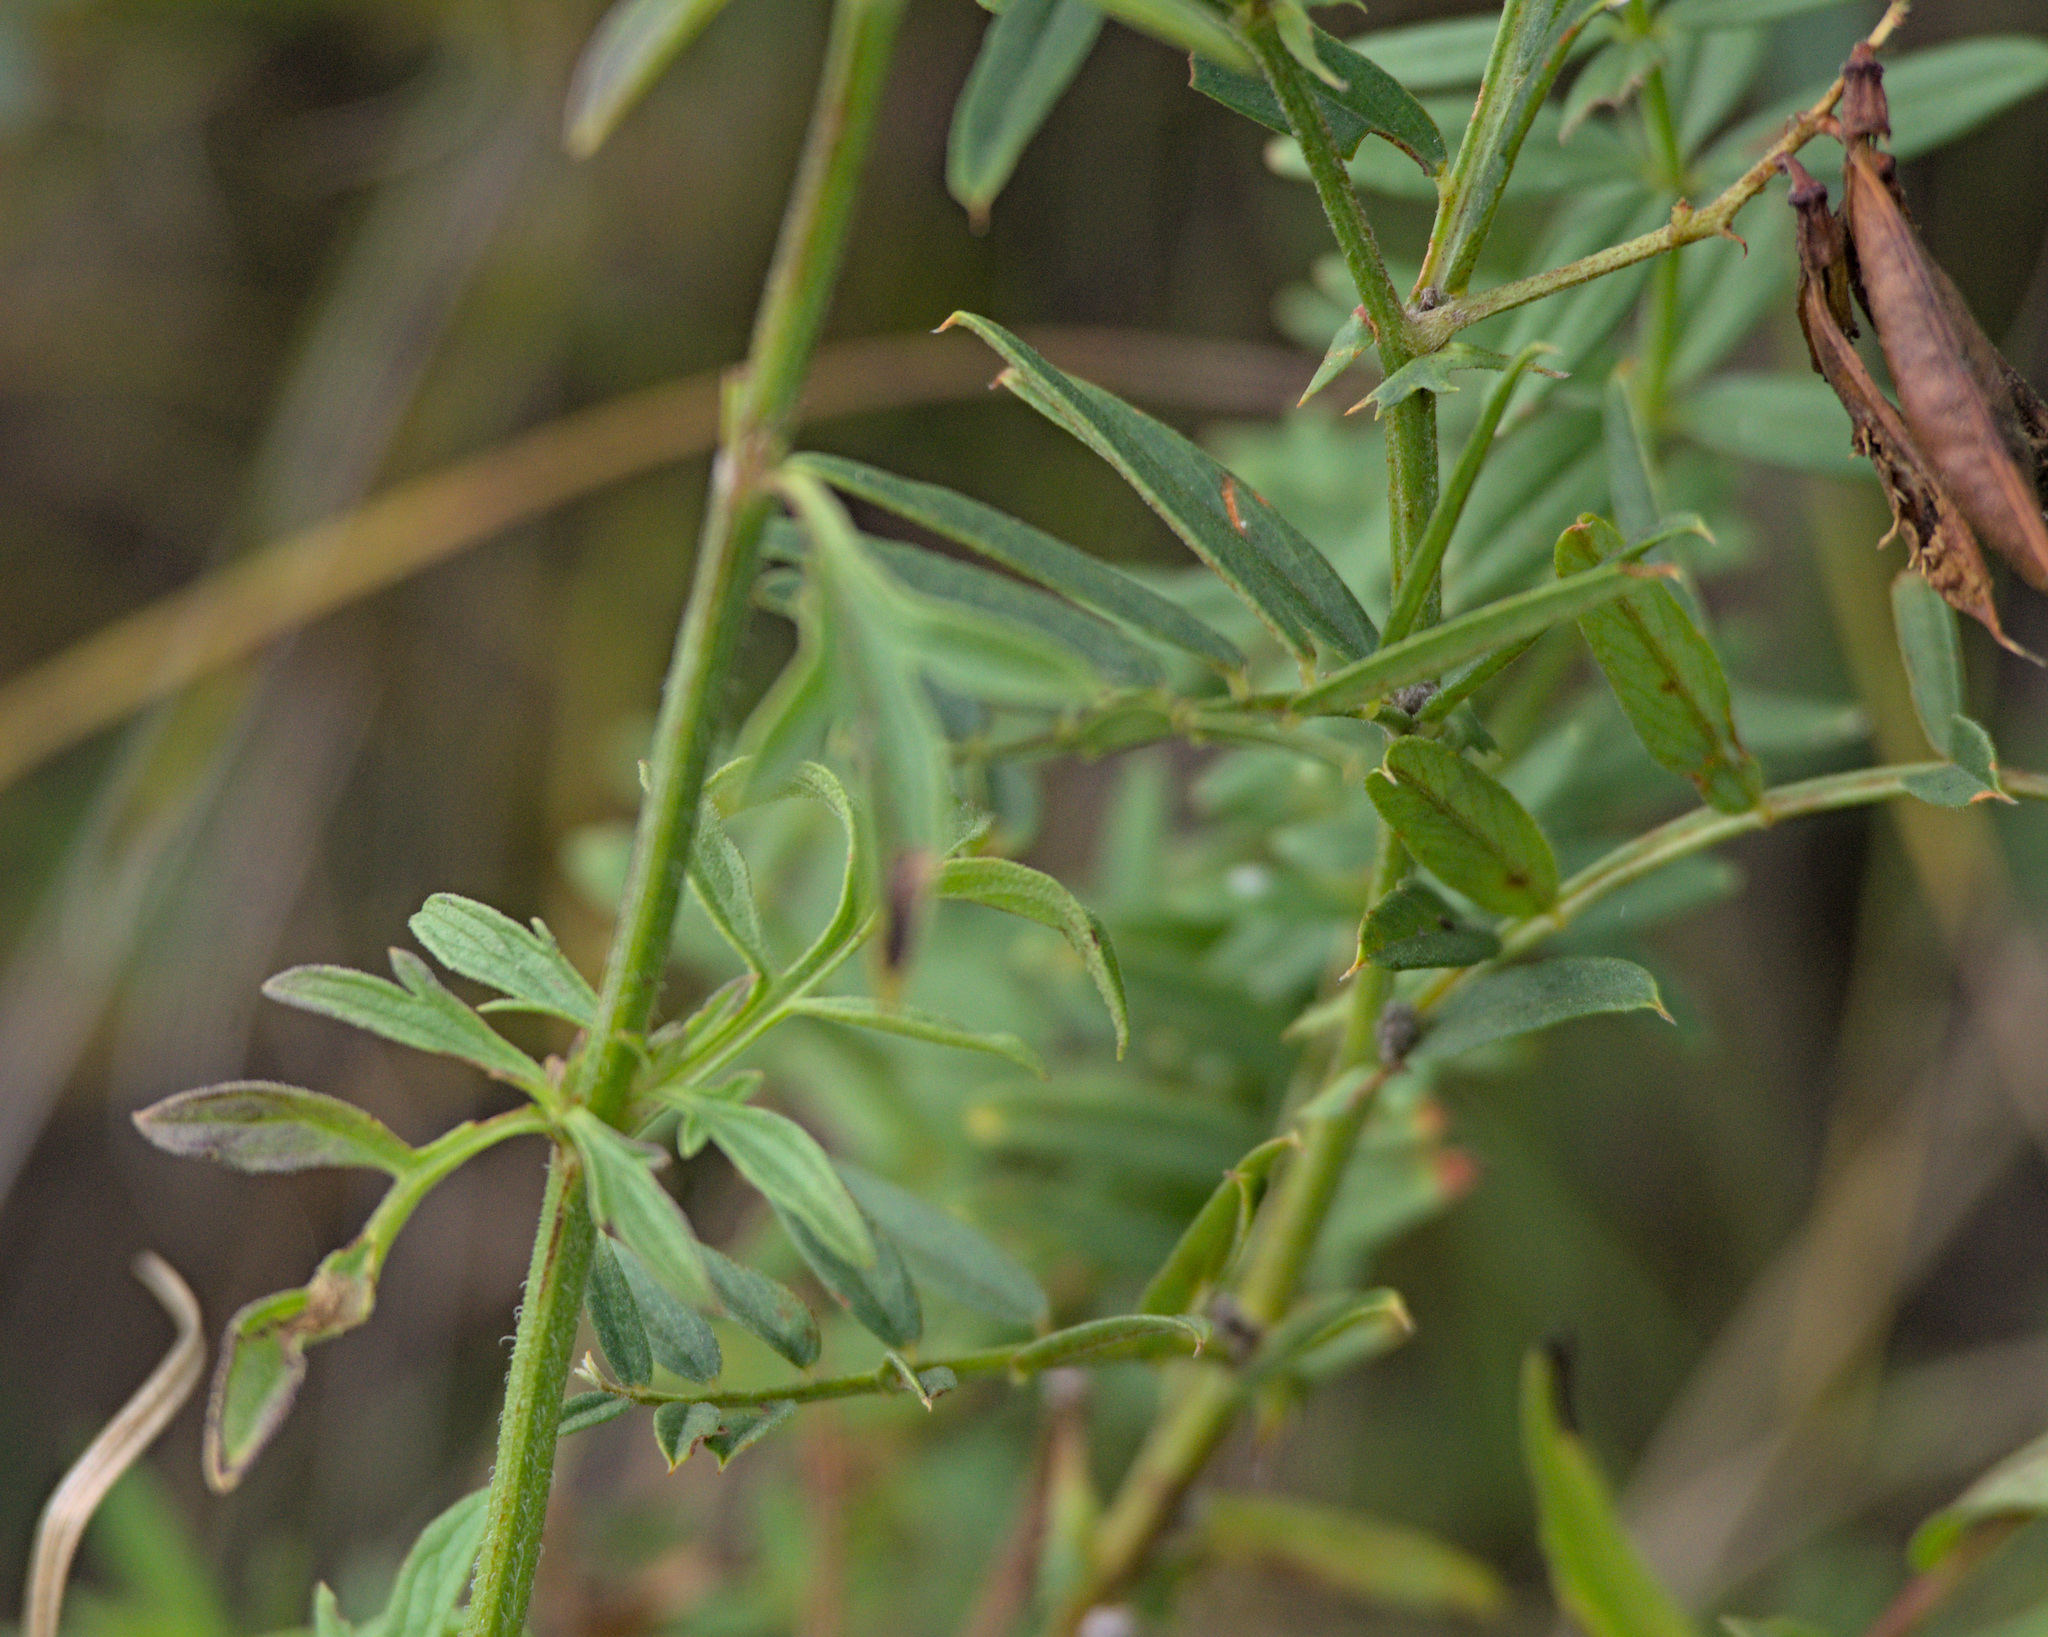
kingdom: Plantae
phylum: Tracheophyta
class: Magnoliopsida
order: Lamiales
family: Lamiaceae
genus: Nepeta
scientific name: Nepeta multifida
